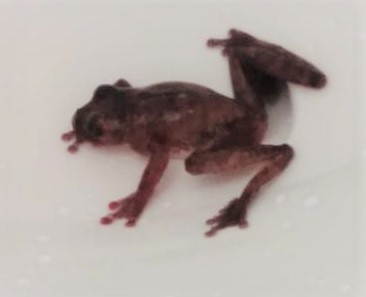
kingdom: Animalia
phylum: Chordata
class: Amphibia
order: Anura
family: Hylidae
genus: Smilisca
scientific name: Smilisca sordida
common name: Veragua cross-banded treefrog
